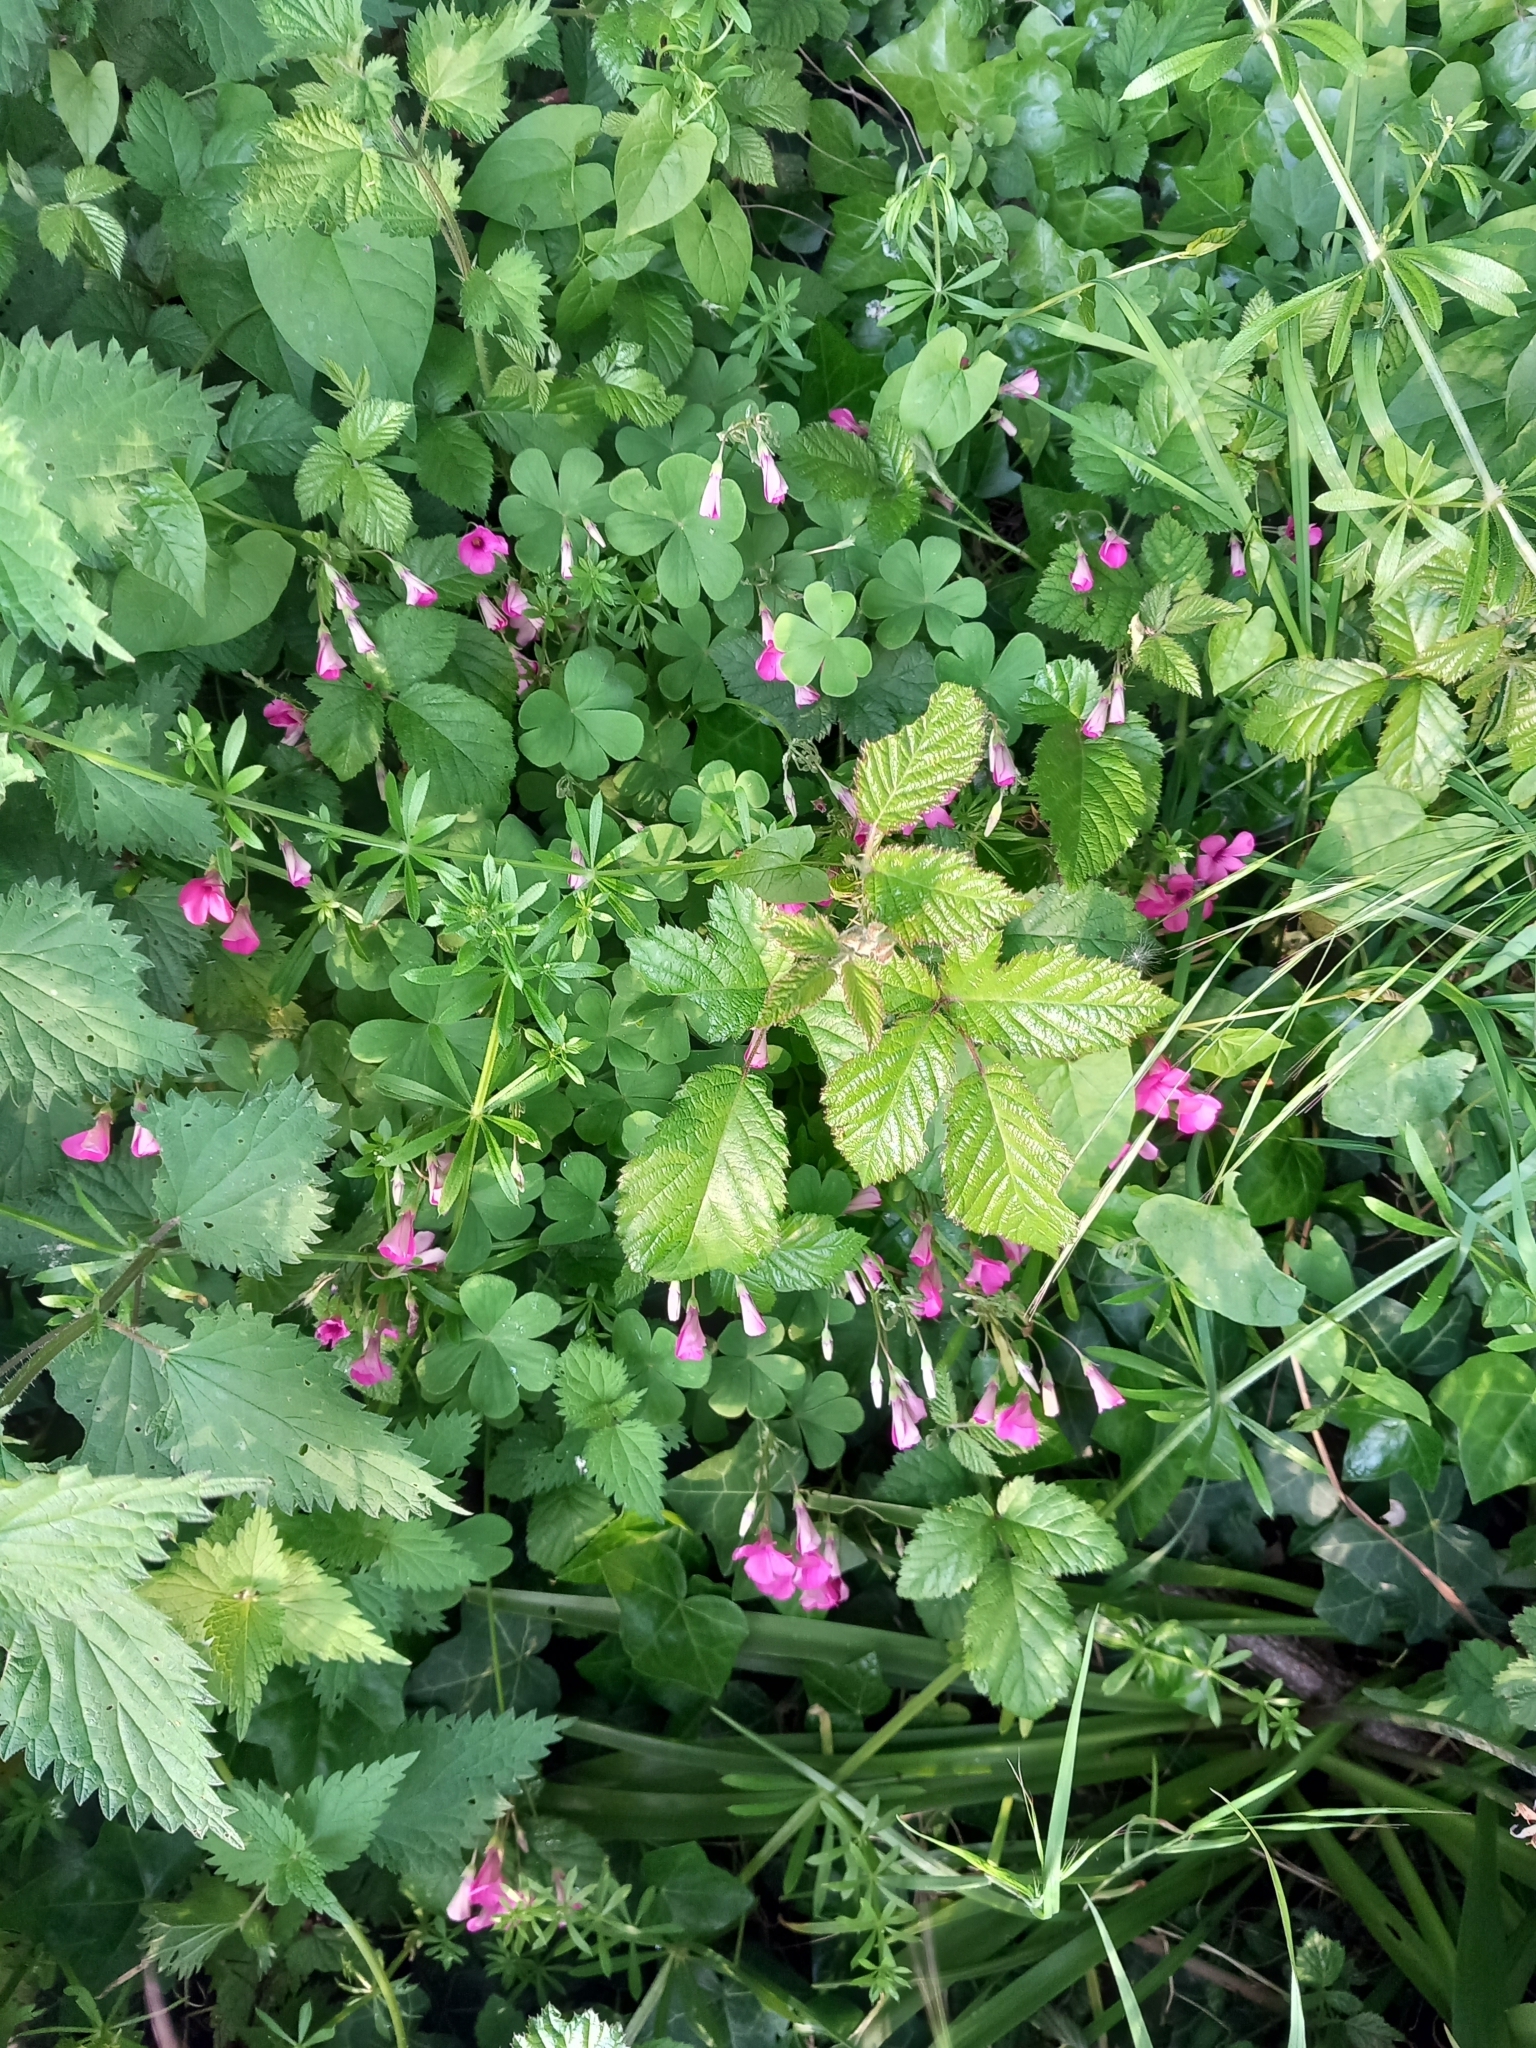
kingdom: Plantae
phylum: Tracheophyta
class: Magnoliopsida
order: Oxalidales
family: Oxalidaceae
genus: Oxalis
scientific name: Oxalis articulata
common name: Pink-sorrel
